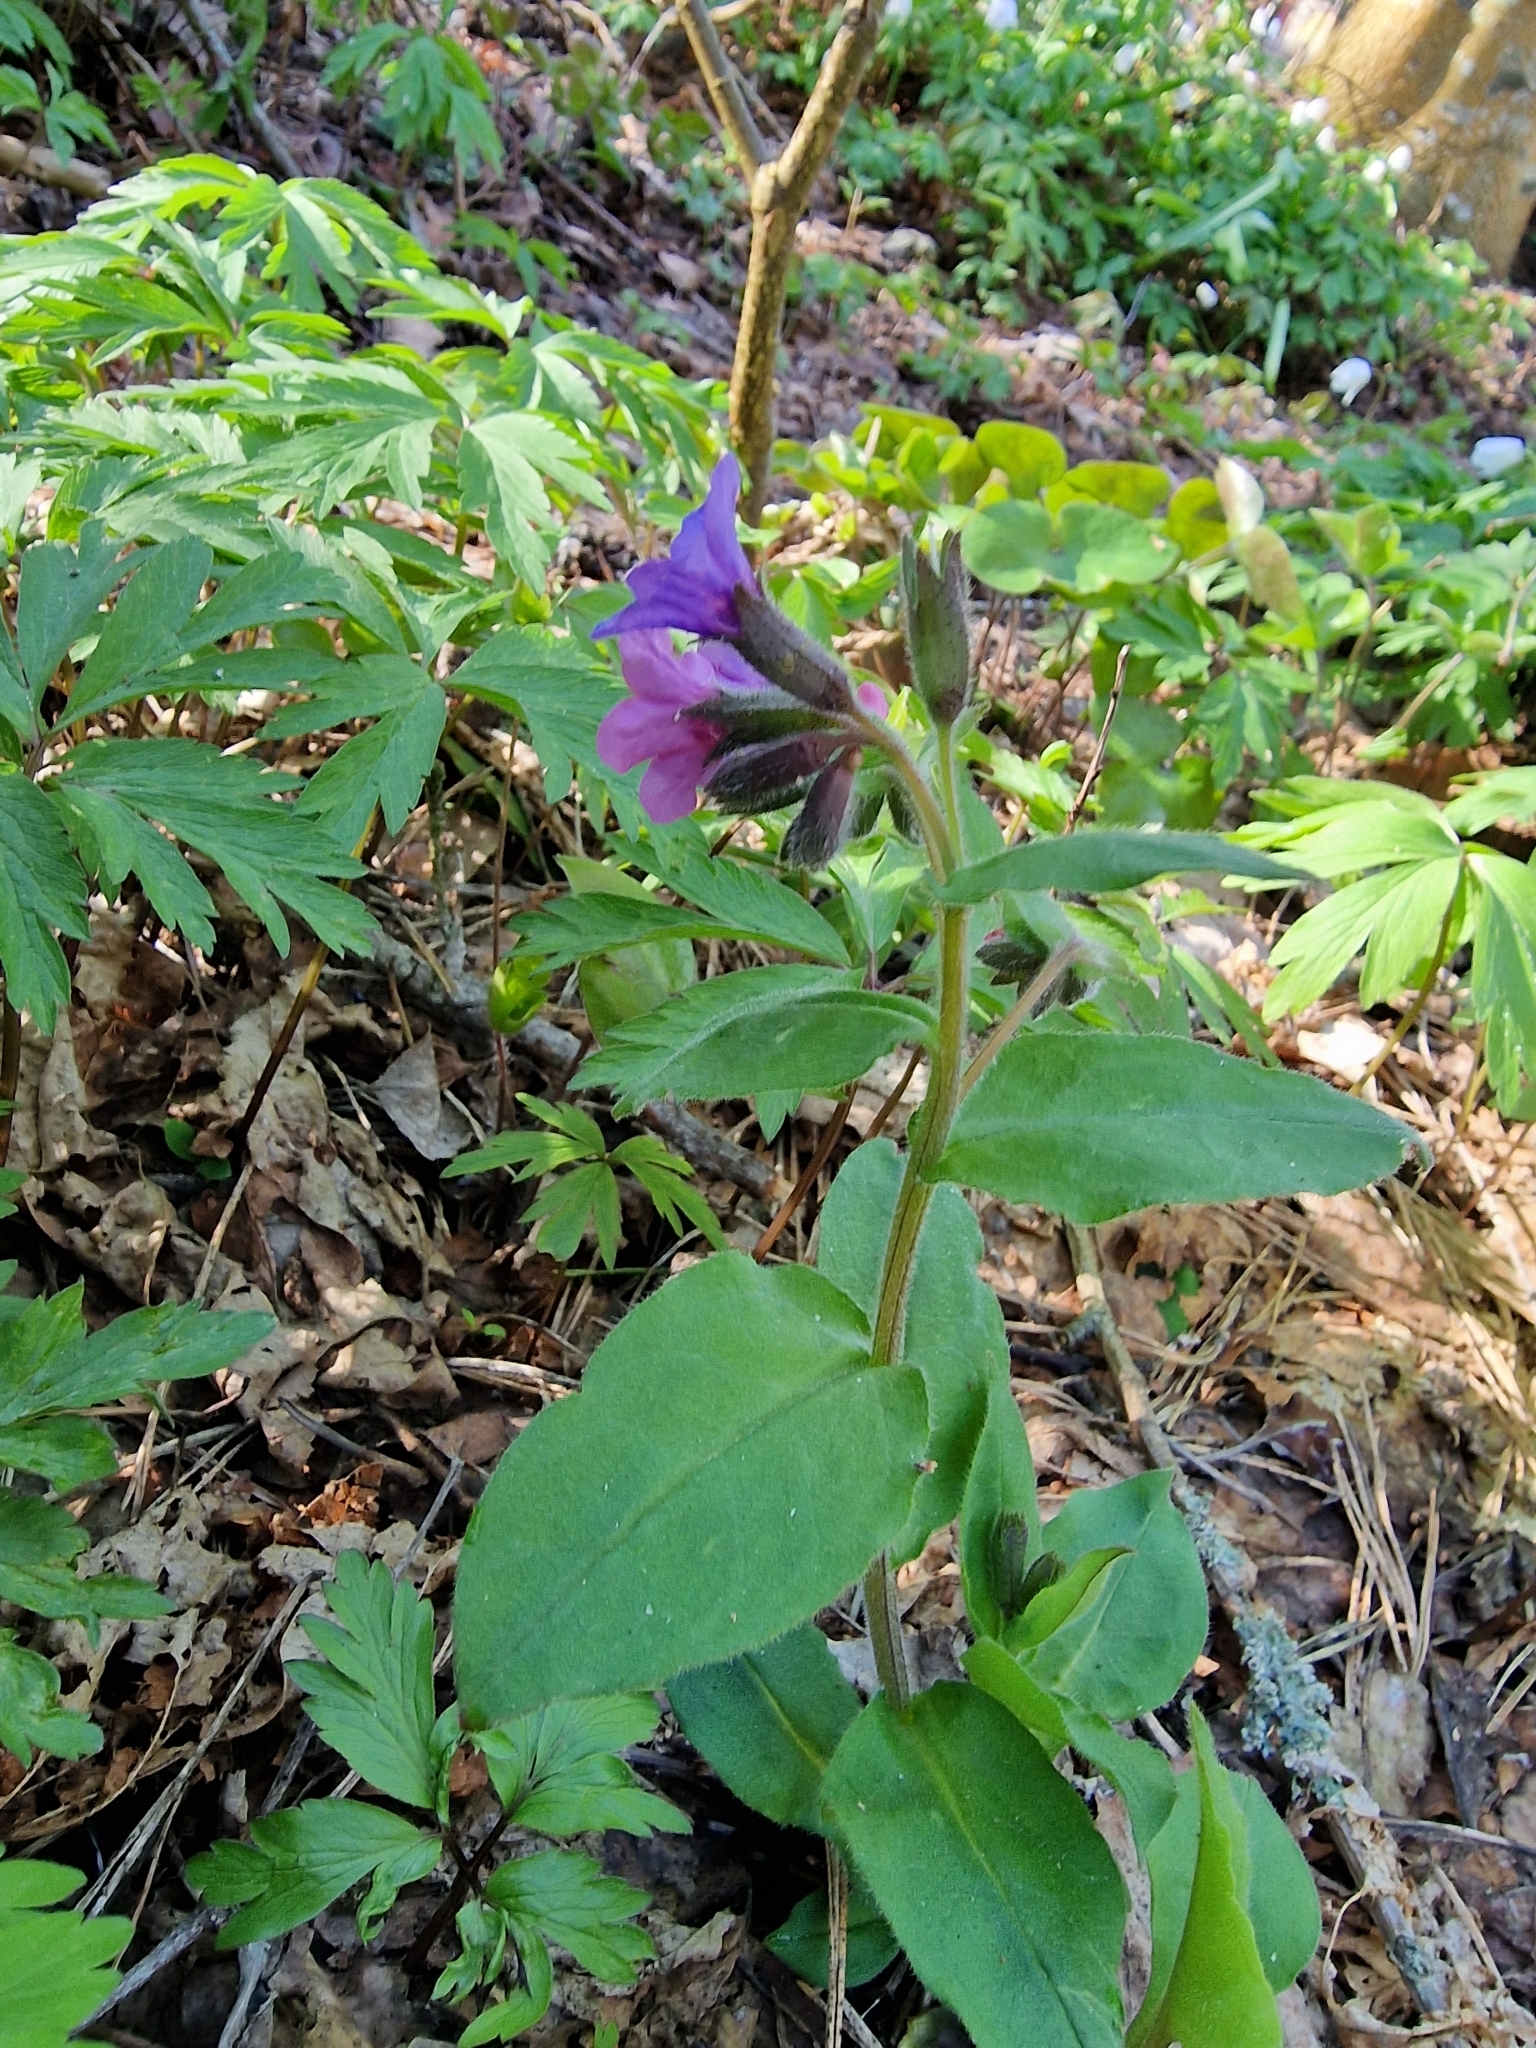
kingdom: Plantae
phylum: Tracheophyta
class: Magnoliopsida
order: Boraginales
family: Boraginaceae
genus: Pulmonaria
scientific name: Pulmonaria obscura
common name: Suffolk lungwort
